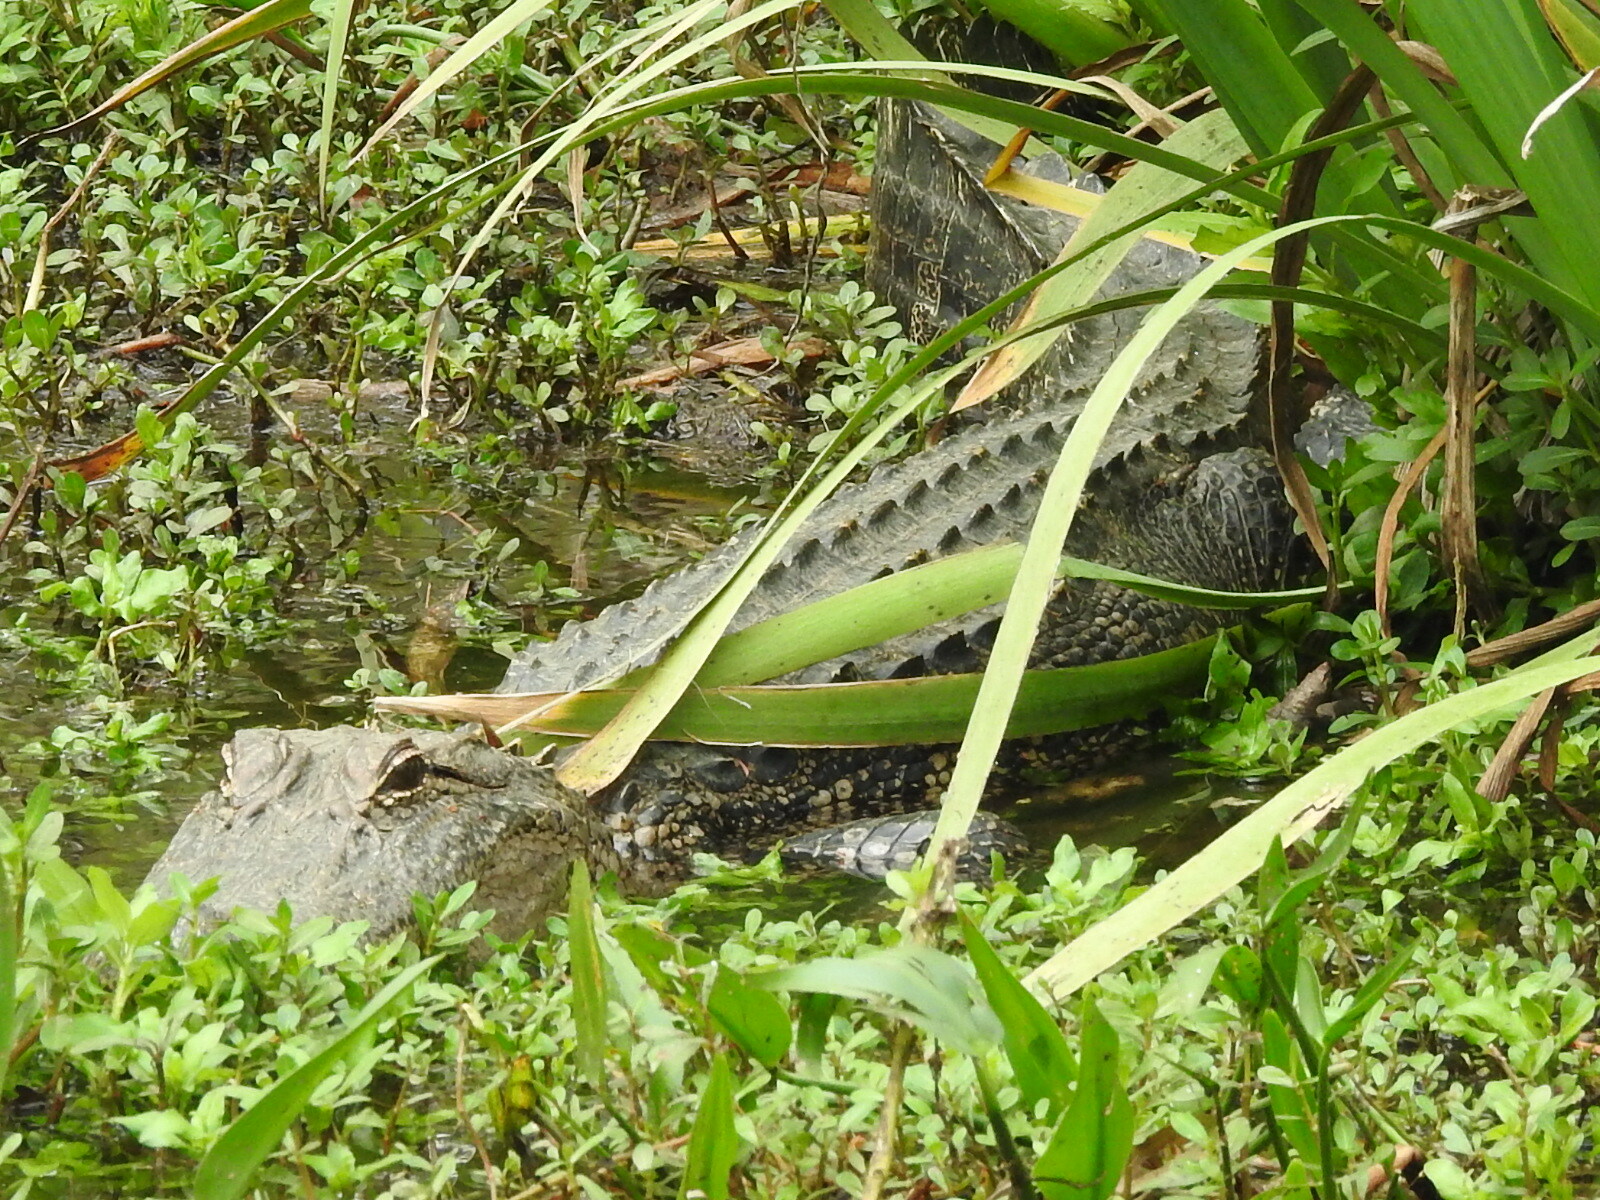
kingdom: Animalia
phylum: Chordata
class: Crocodylia
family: Alligatoridae
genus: Alligator
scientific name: Alligator mississippiensis
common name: American alligator
